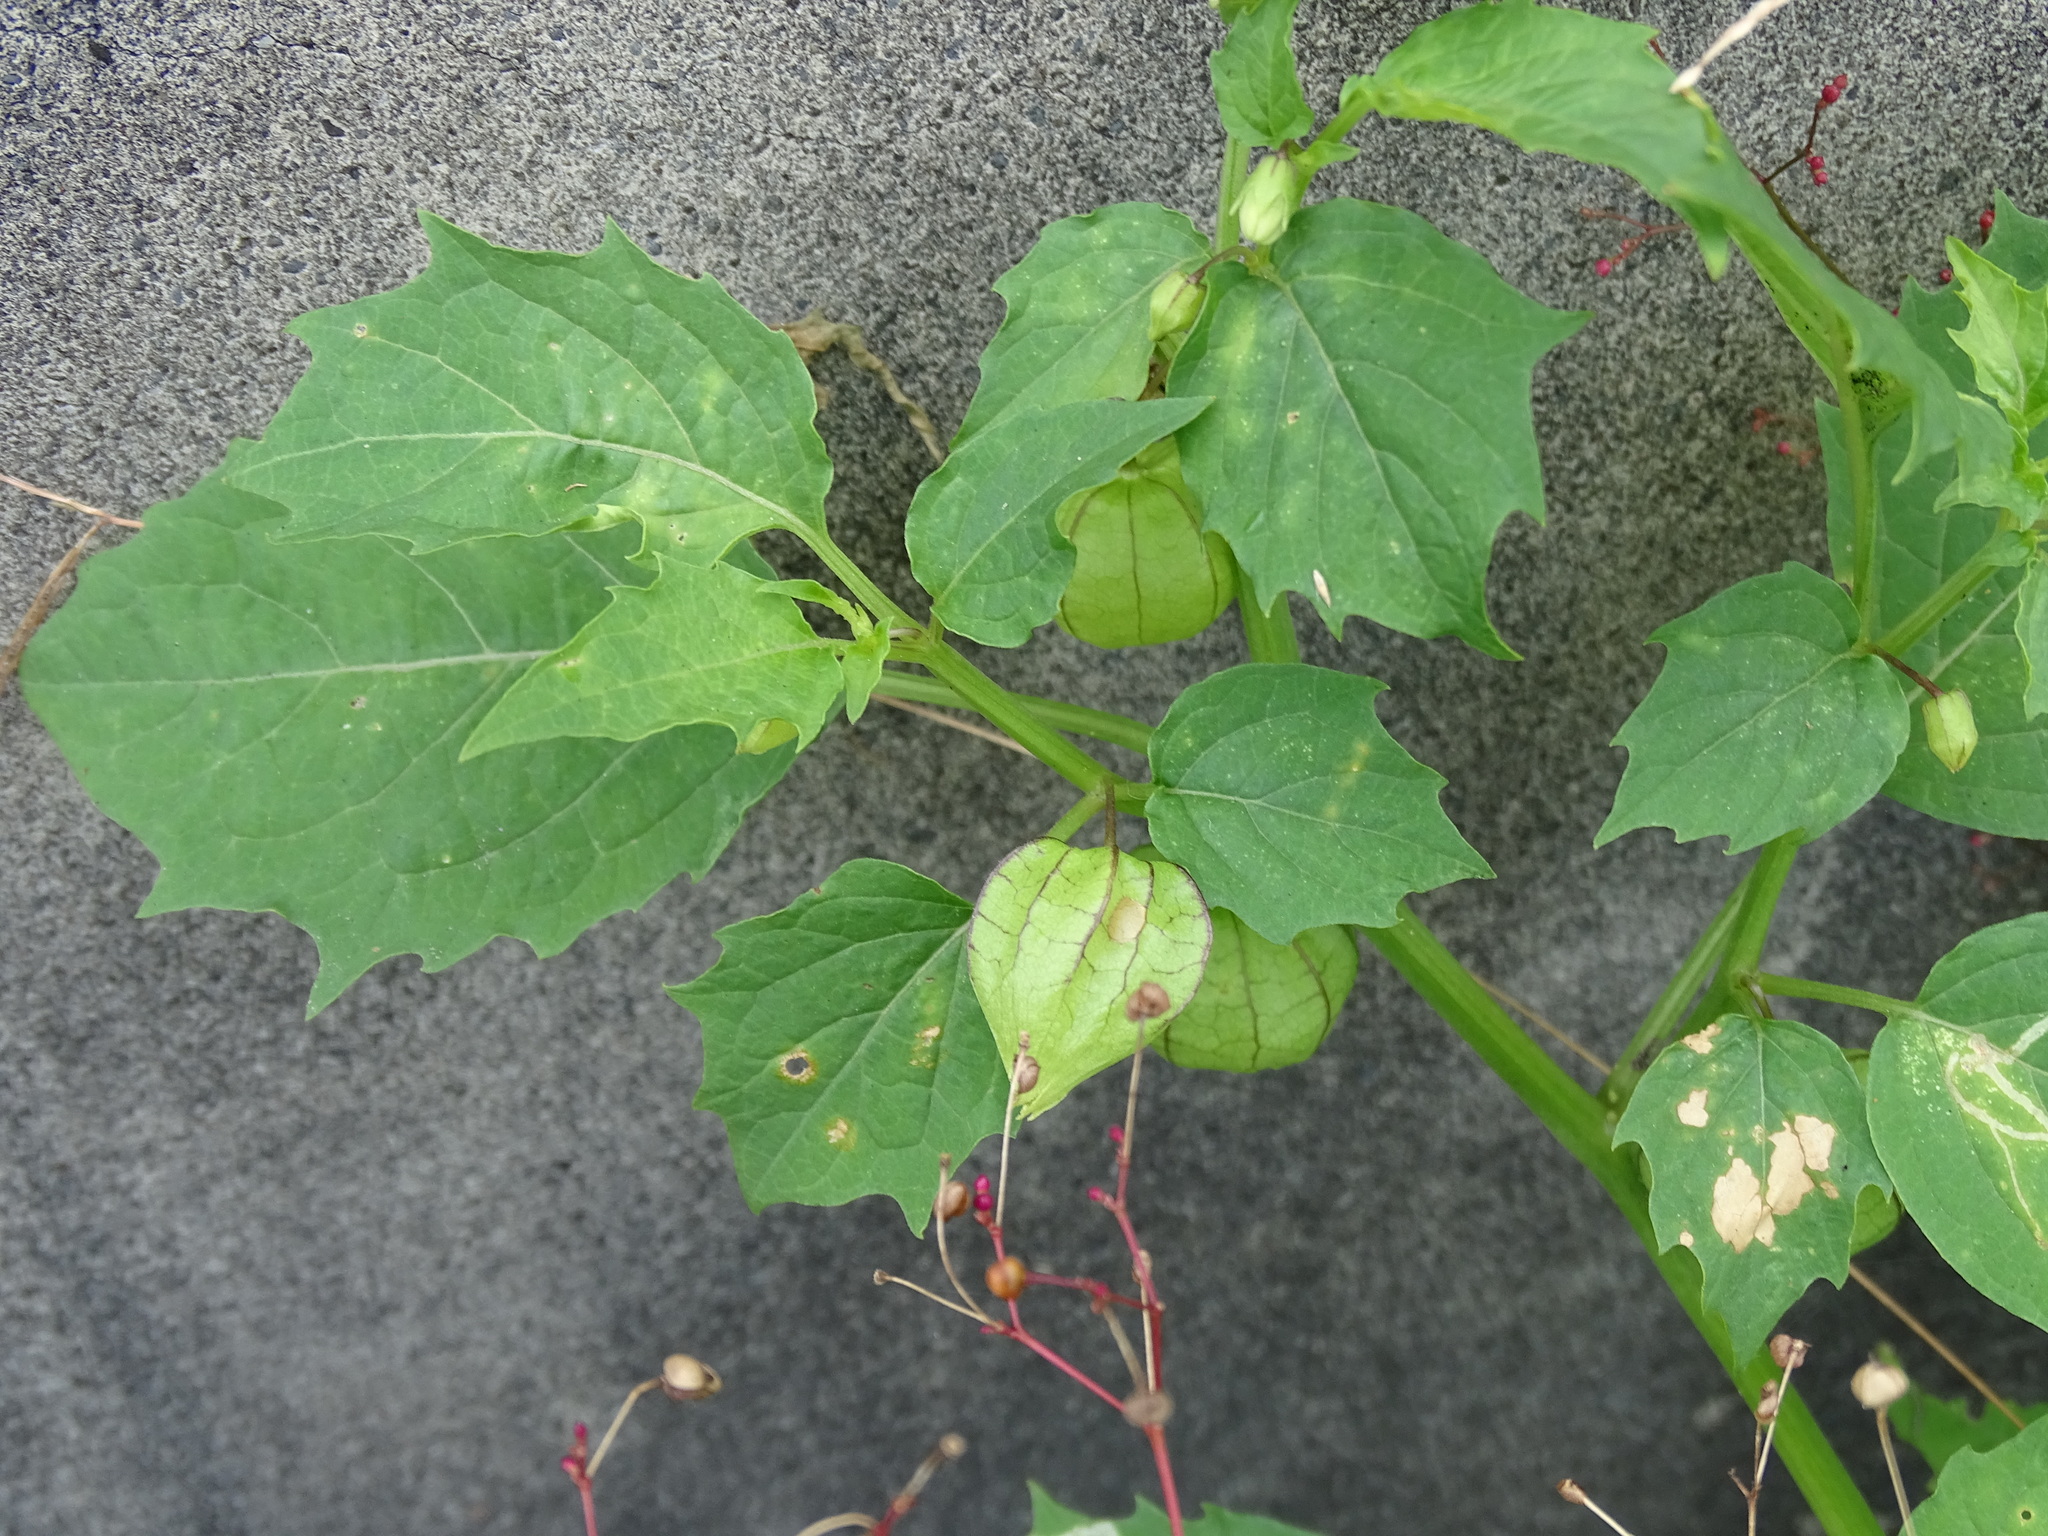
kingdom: Plantae
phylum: Tracheophyta
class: Magnoliopsida
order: Solanales
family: Solanaceae
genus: Physalis
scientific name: Physalis angulata
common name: Angular winter-cherry
